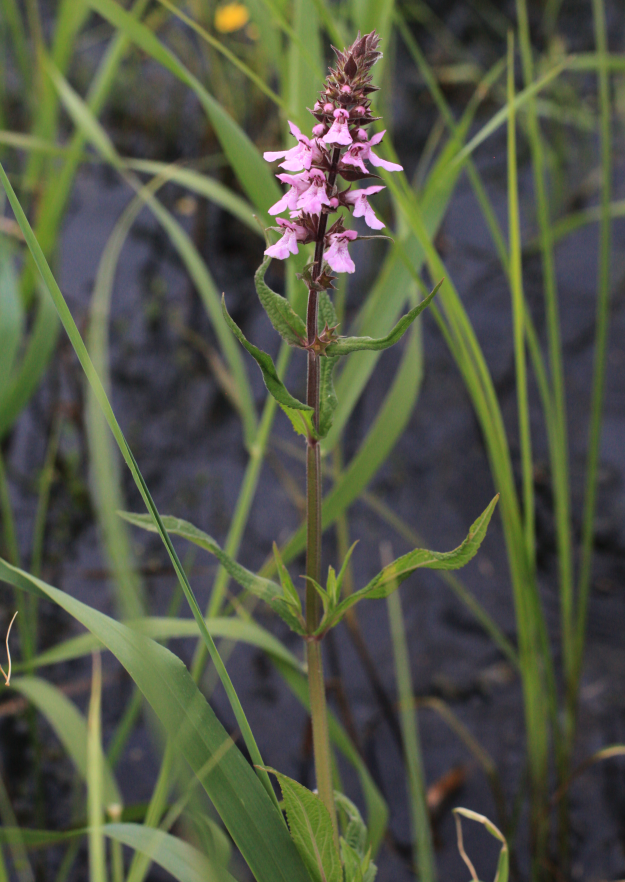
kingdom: Plantae
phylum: Tracheophyta
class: Magnoliopsida
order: Lamiales
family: Lamiaceae
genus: Stachys
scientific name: Stachys palustris
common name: Marsh woundwort
